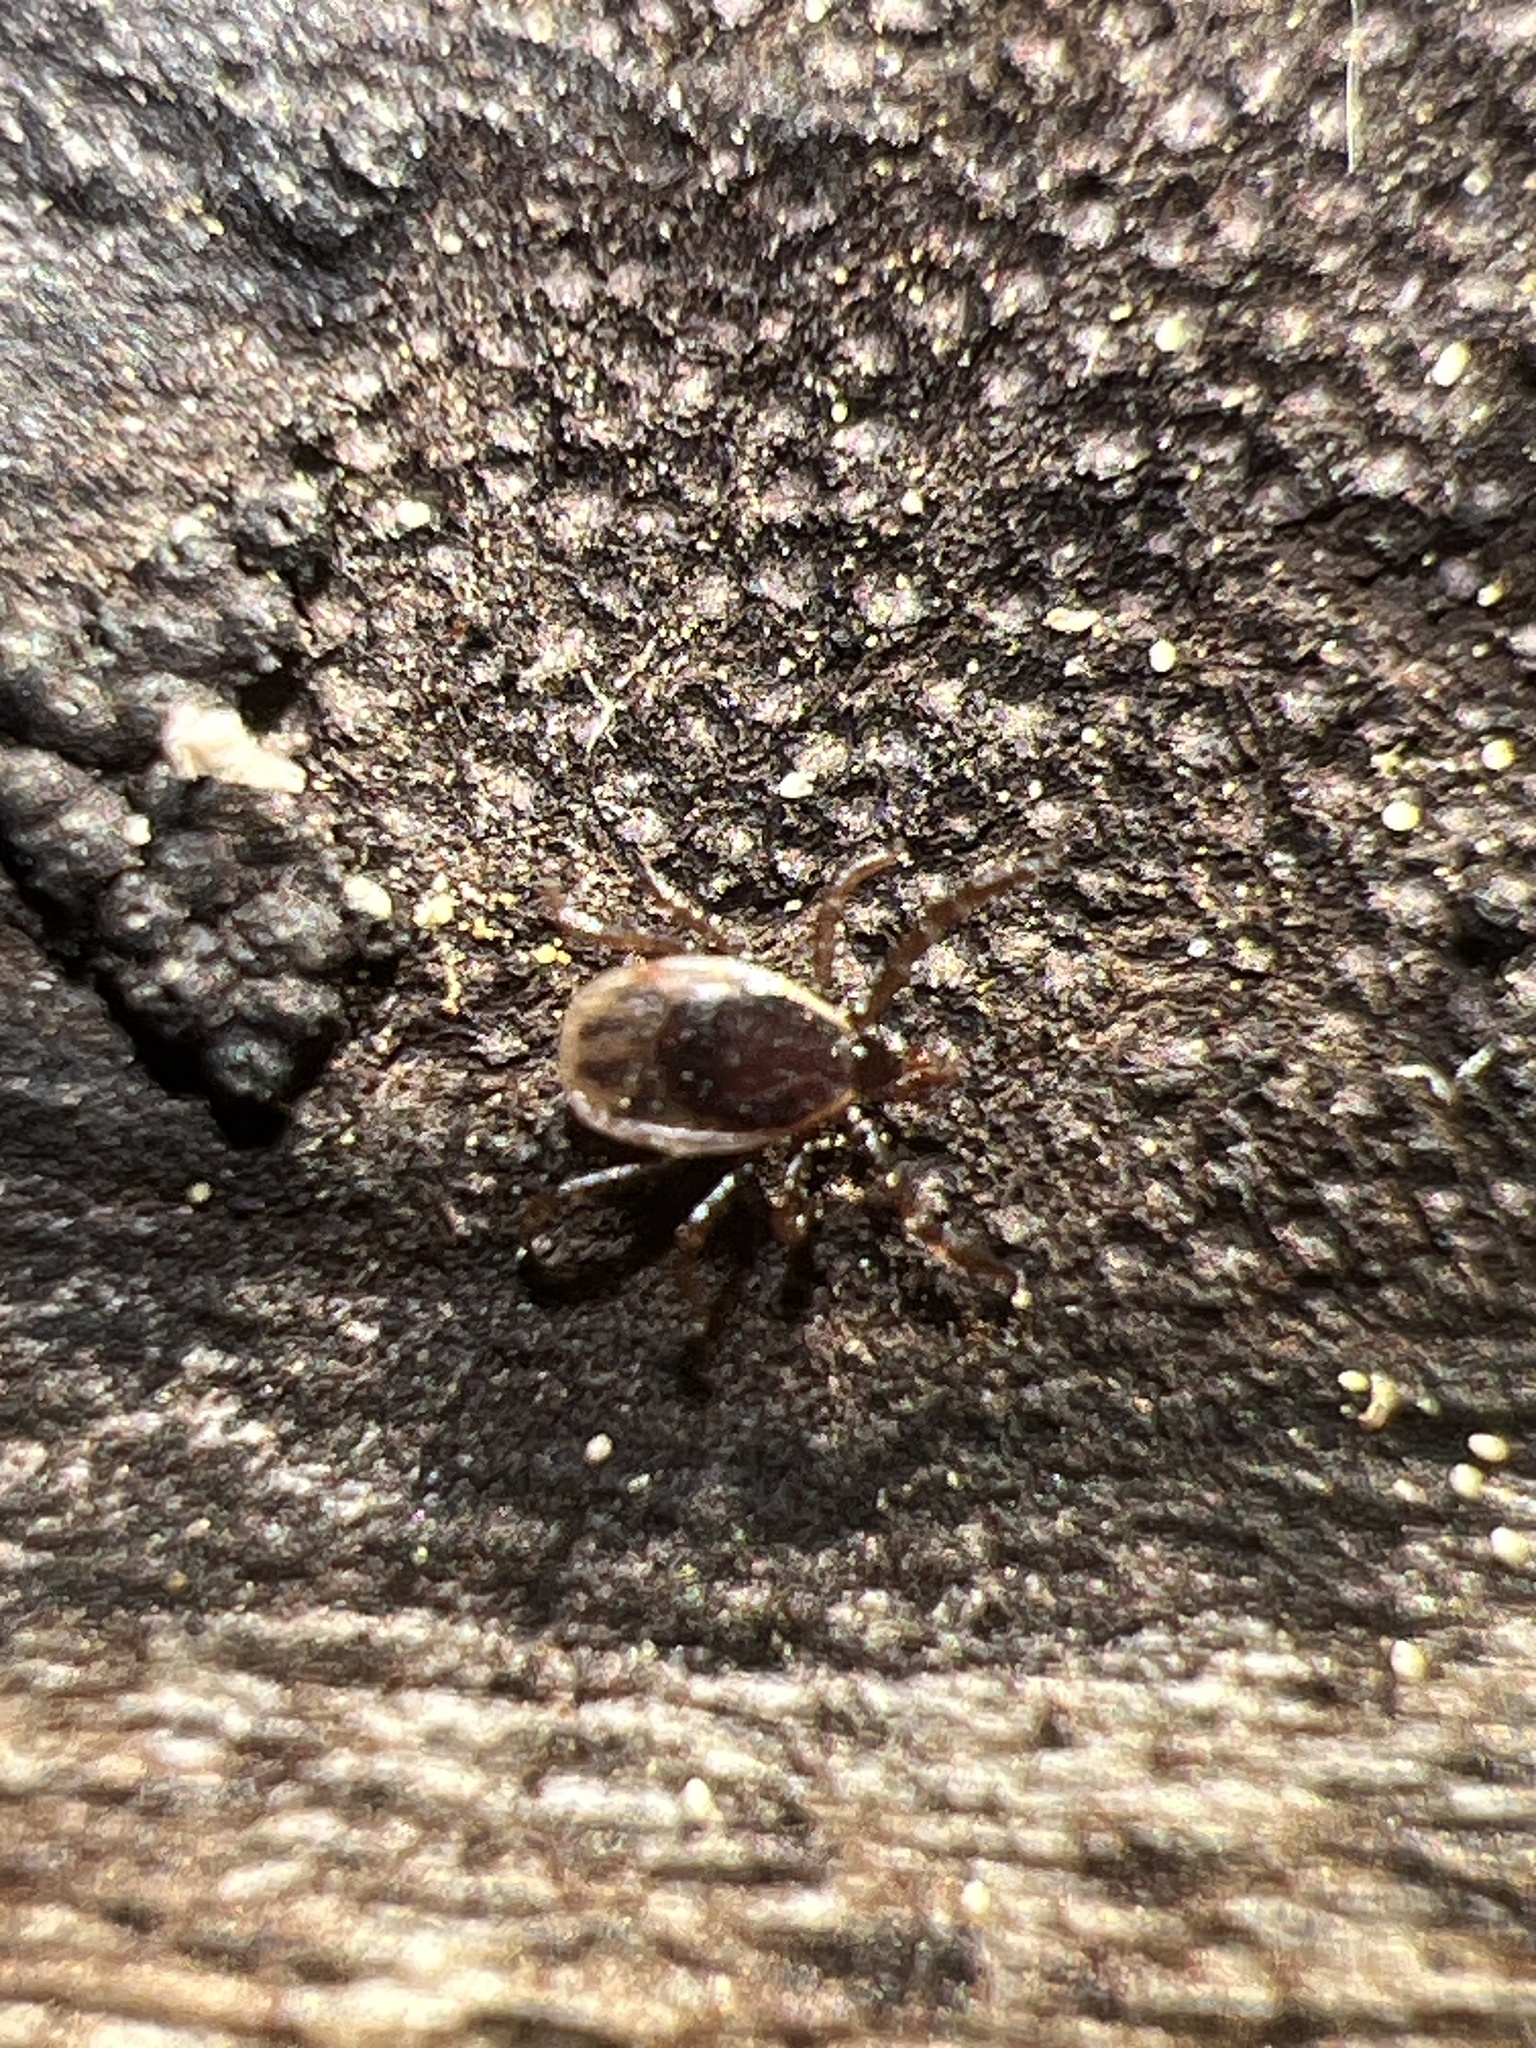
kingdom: Animalia
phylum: Arthropoda
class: Arachnida
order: Ixodida
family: Ixodidae
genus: Ixodes
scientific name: Ixodes scapularis
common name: Black legged tick
